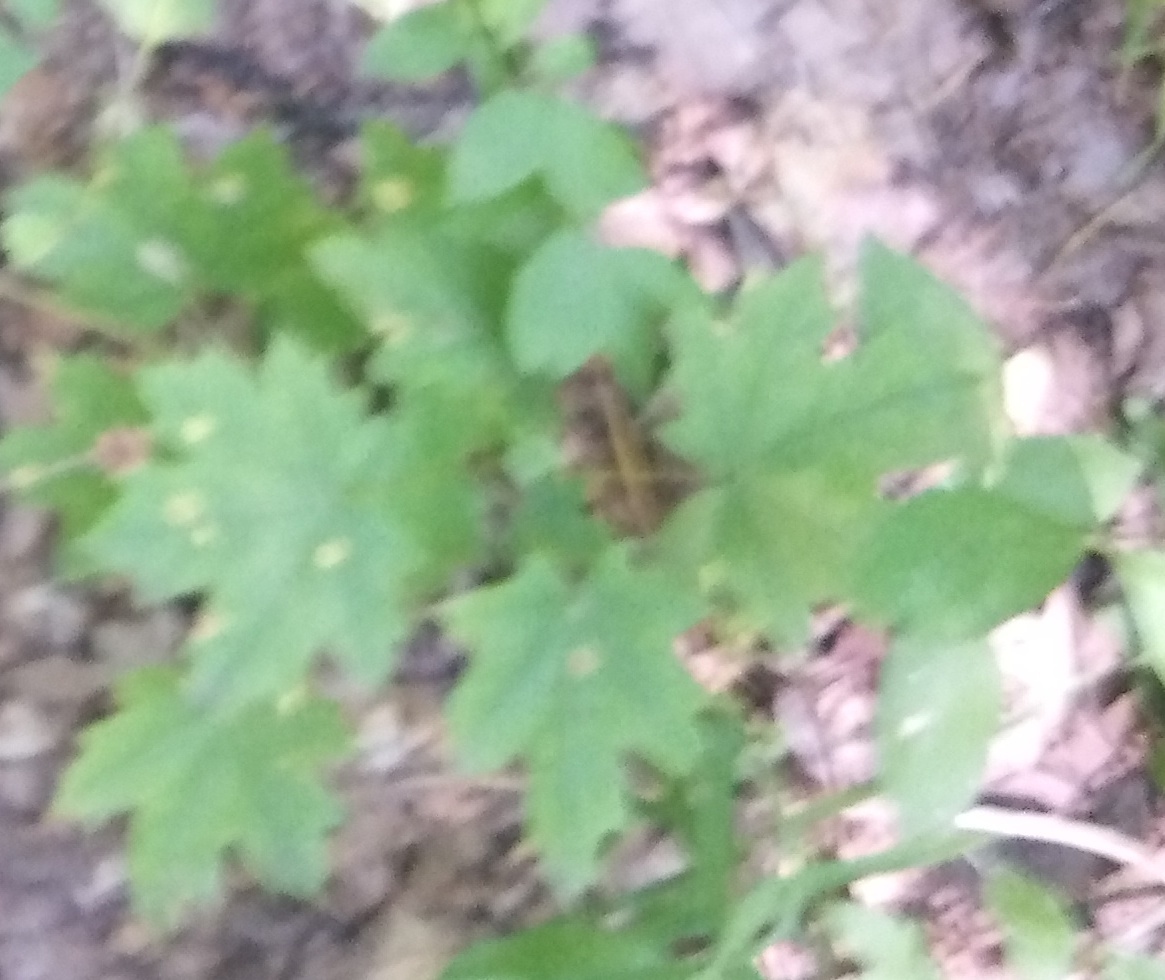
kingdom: Plantae
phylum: Tracheophyta
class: Magnoliopsida
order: Sapindales
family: Sapindaceae
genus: Acer
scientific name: Acer platanoides
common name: Norway maple
